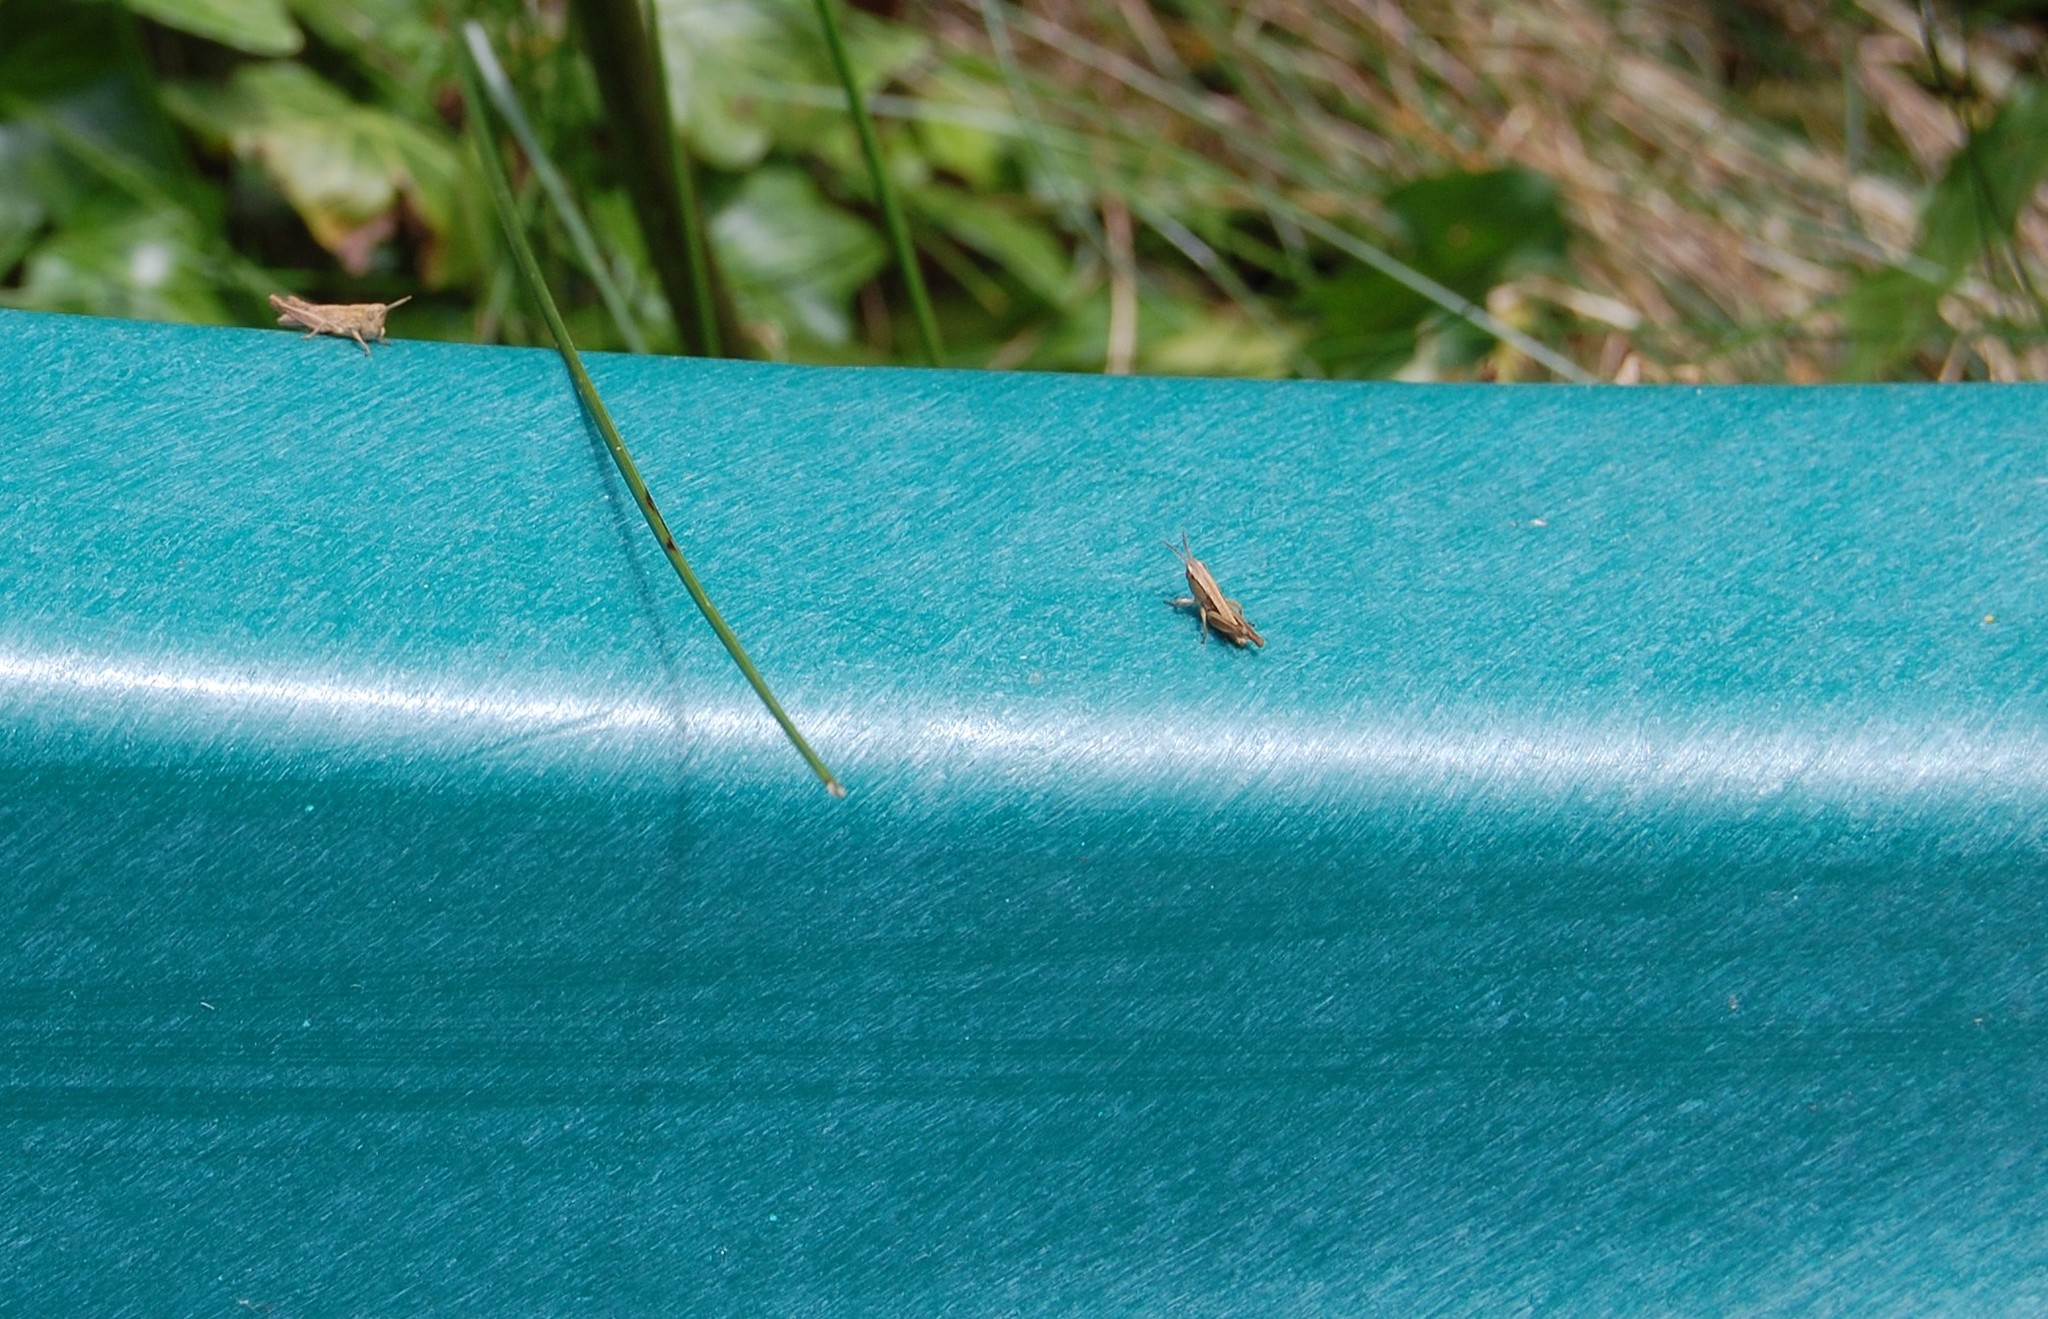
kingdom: Animalia
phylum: Arthropoda
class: Insecta
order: Orthoptera
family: Acrididae
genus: Chorthippus
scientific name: Chorthippus brunneus
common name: Field grasshopper
